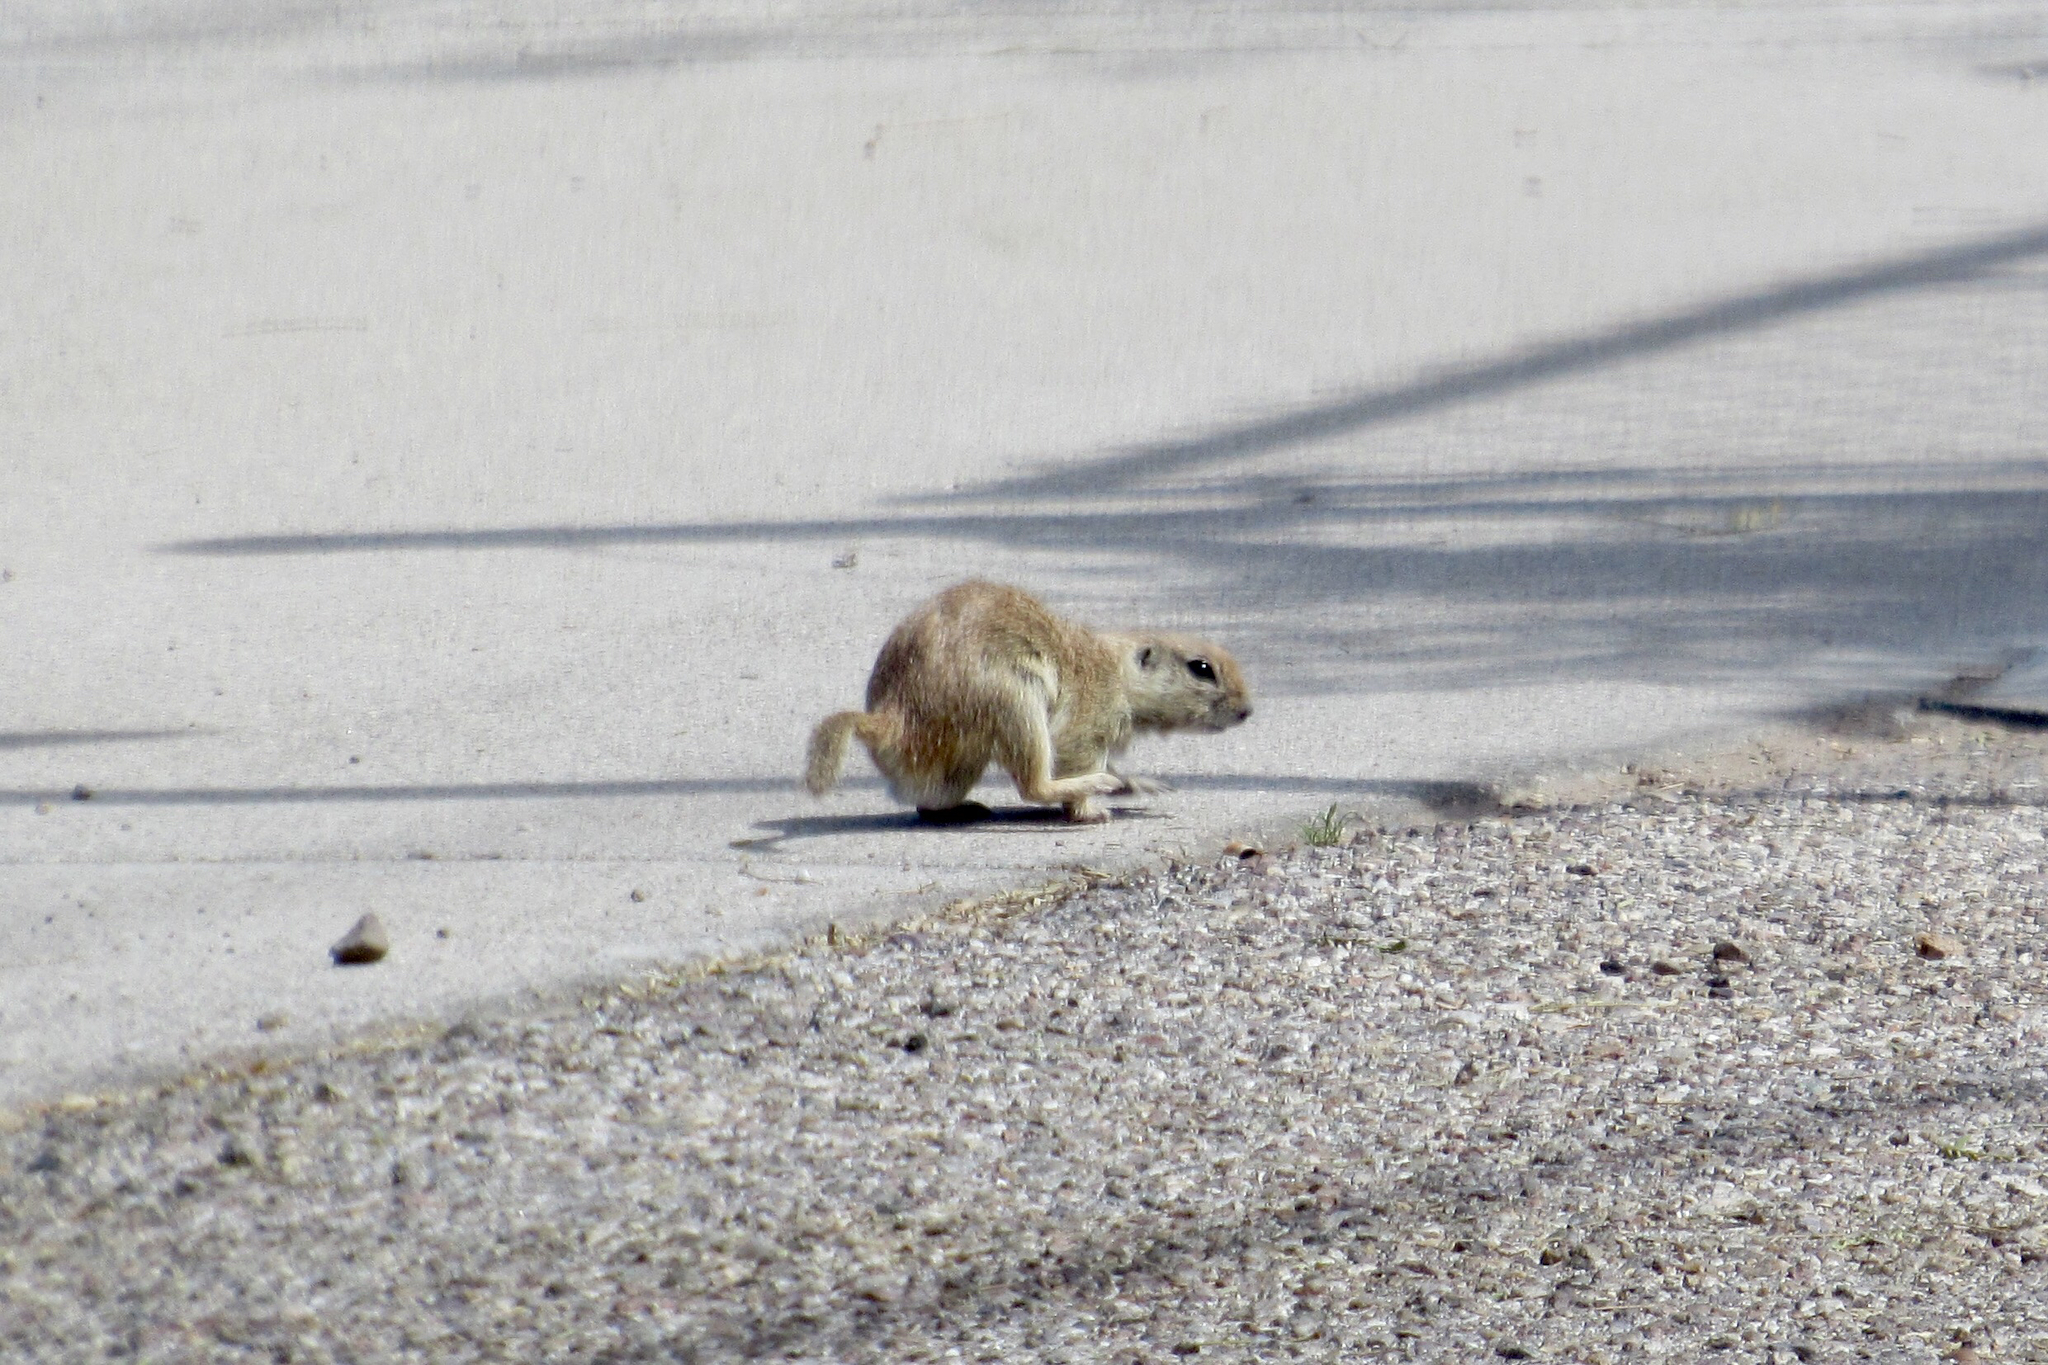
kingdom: Animalia
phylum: Chordata
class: Mammalia
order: Rodentia
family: Sciuridae
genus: Xerospermophilus
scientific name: Xerospermophilus tereticaudus
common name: Round-tailed ground squirrel
